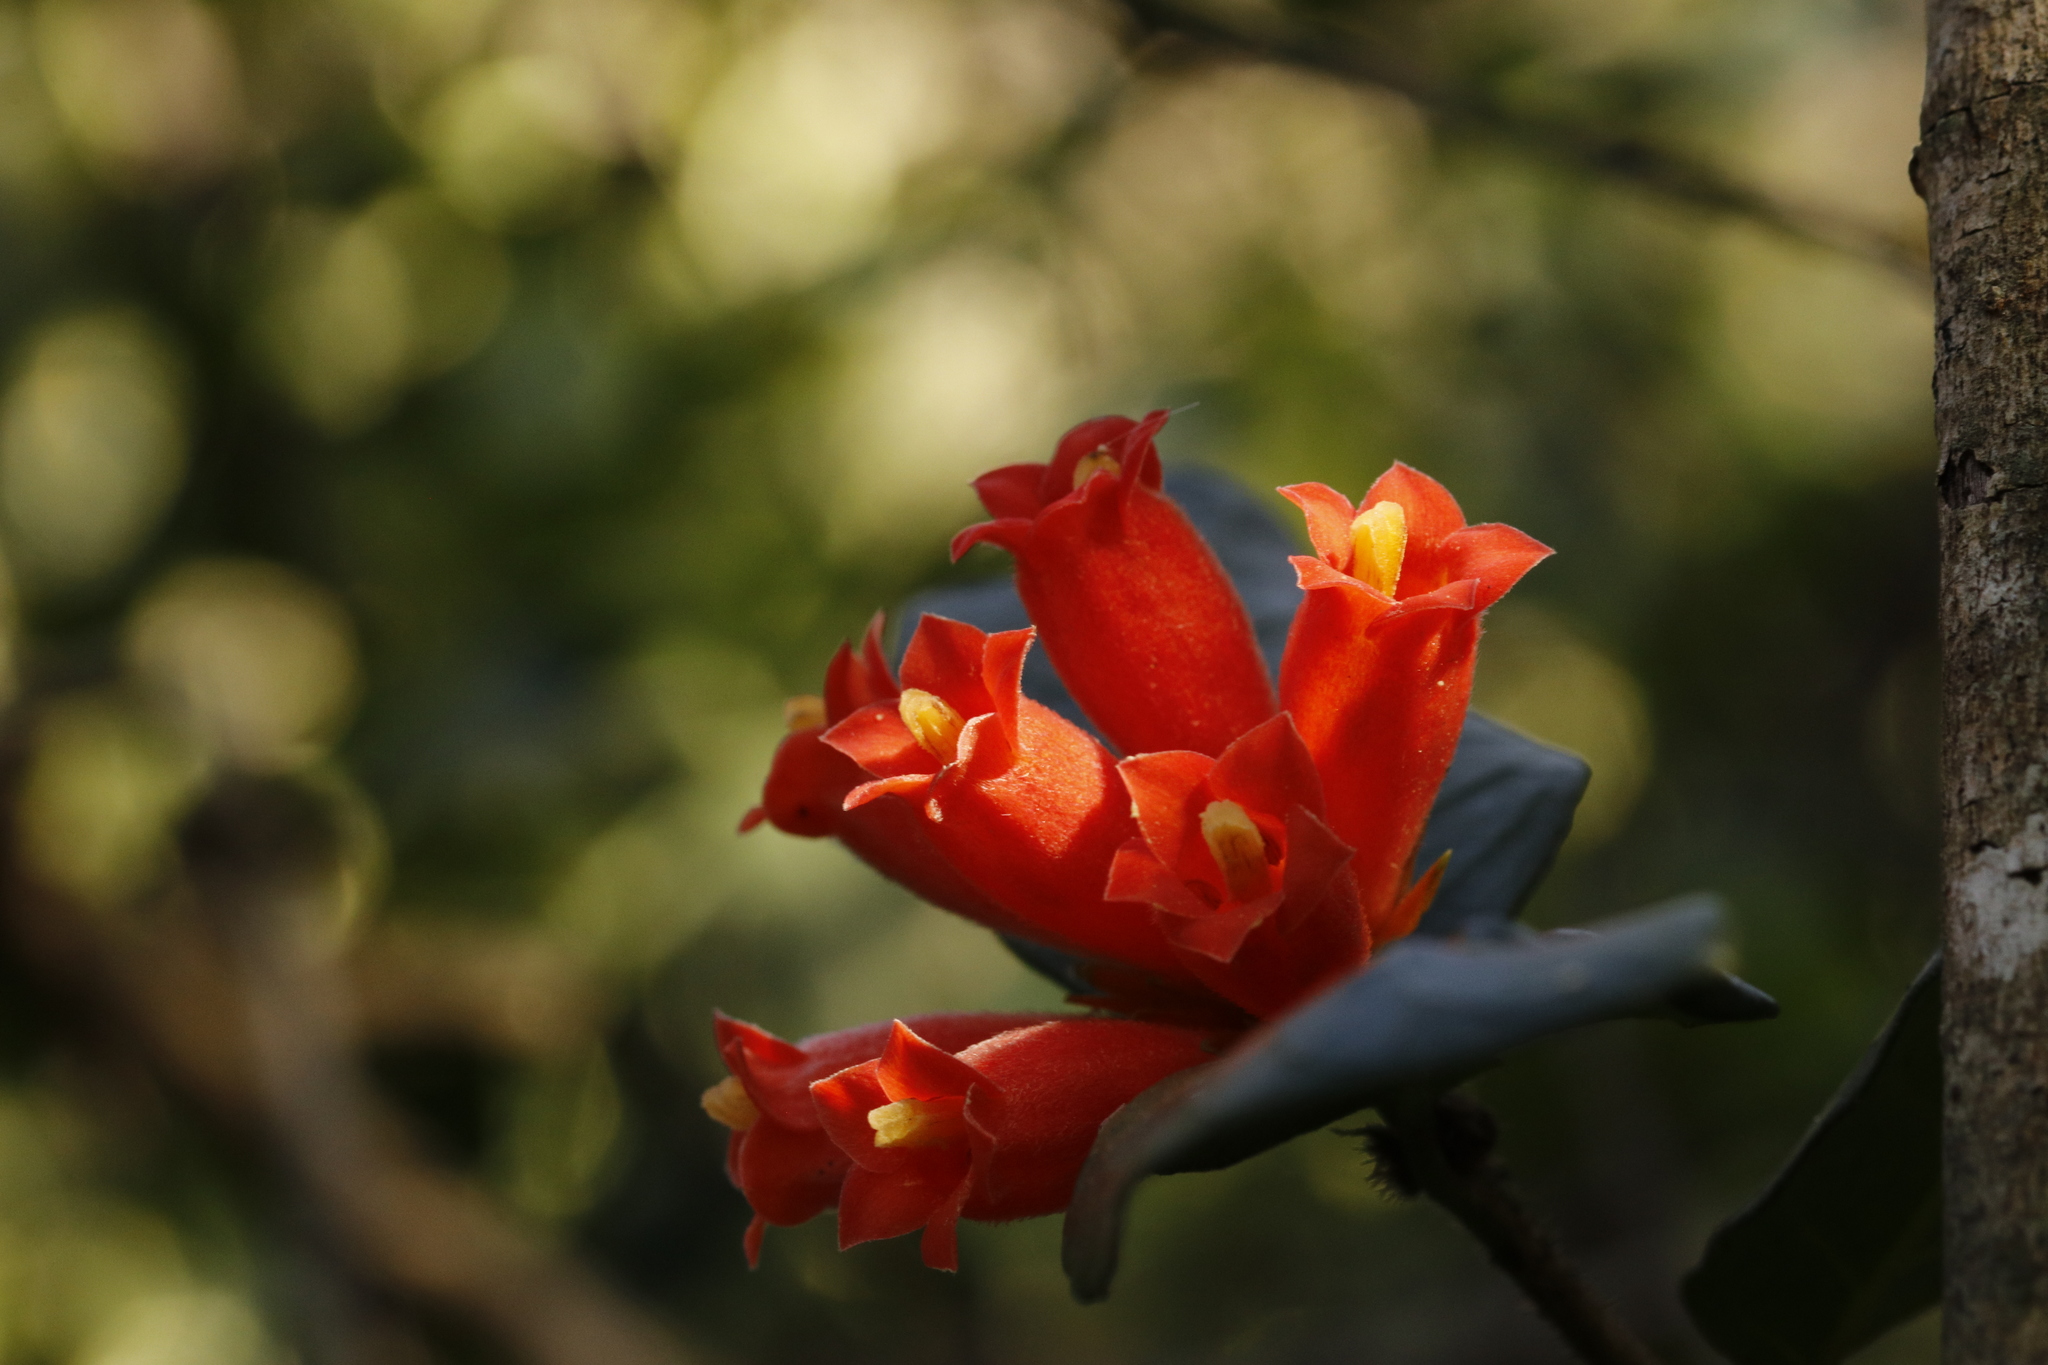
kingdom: Plantae
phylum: Tracheophyta
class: Magnoliopsida
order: Gentianales
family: Rubiaceae
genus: Burchellia
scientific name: Burchellia bubalina
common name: Wild pomegranate
